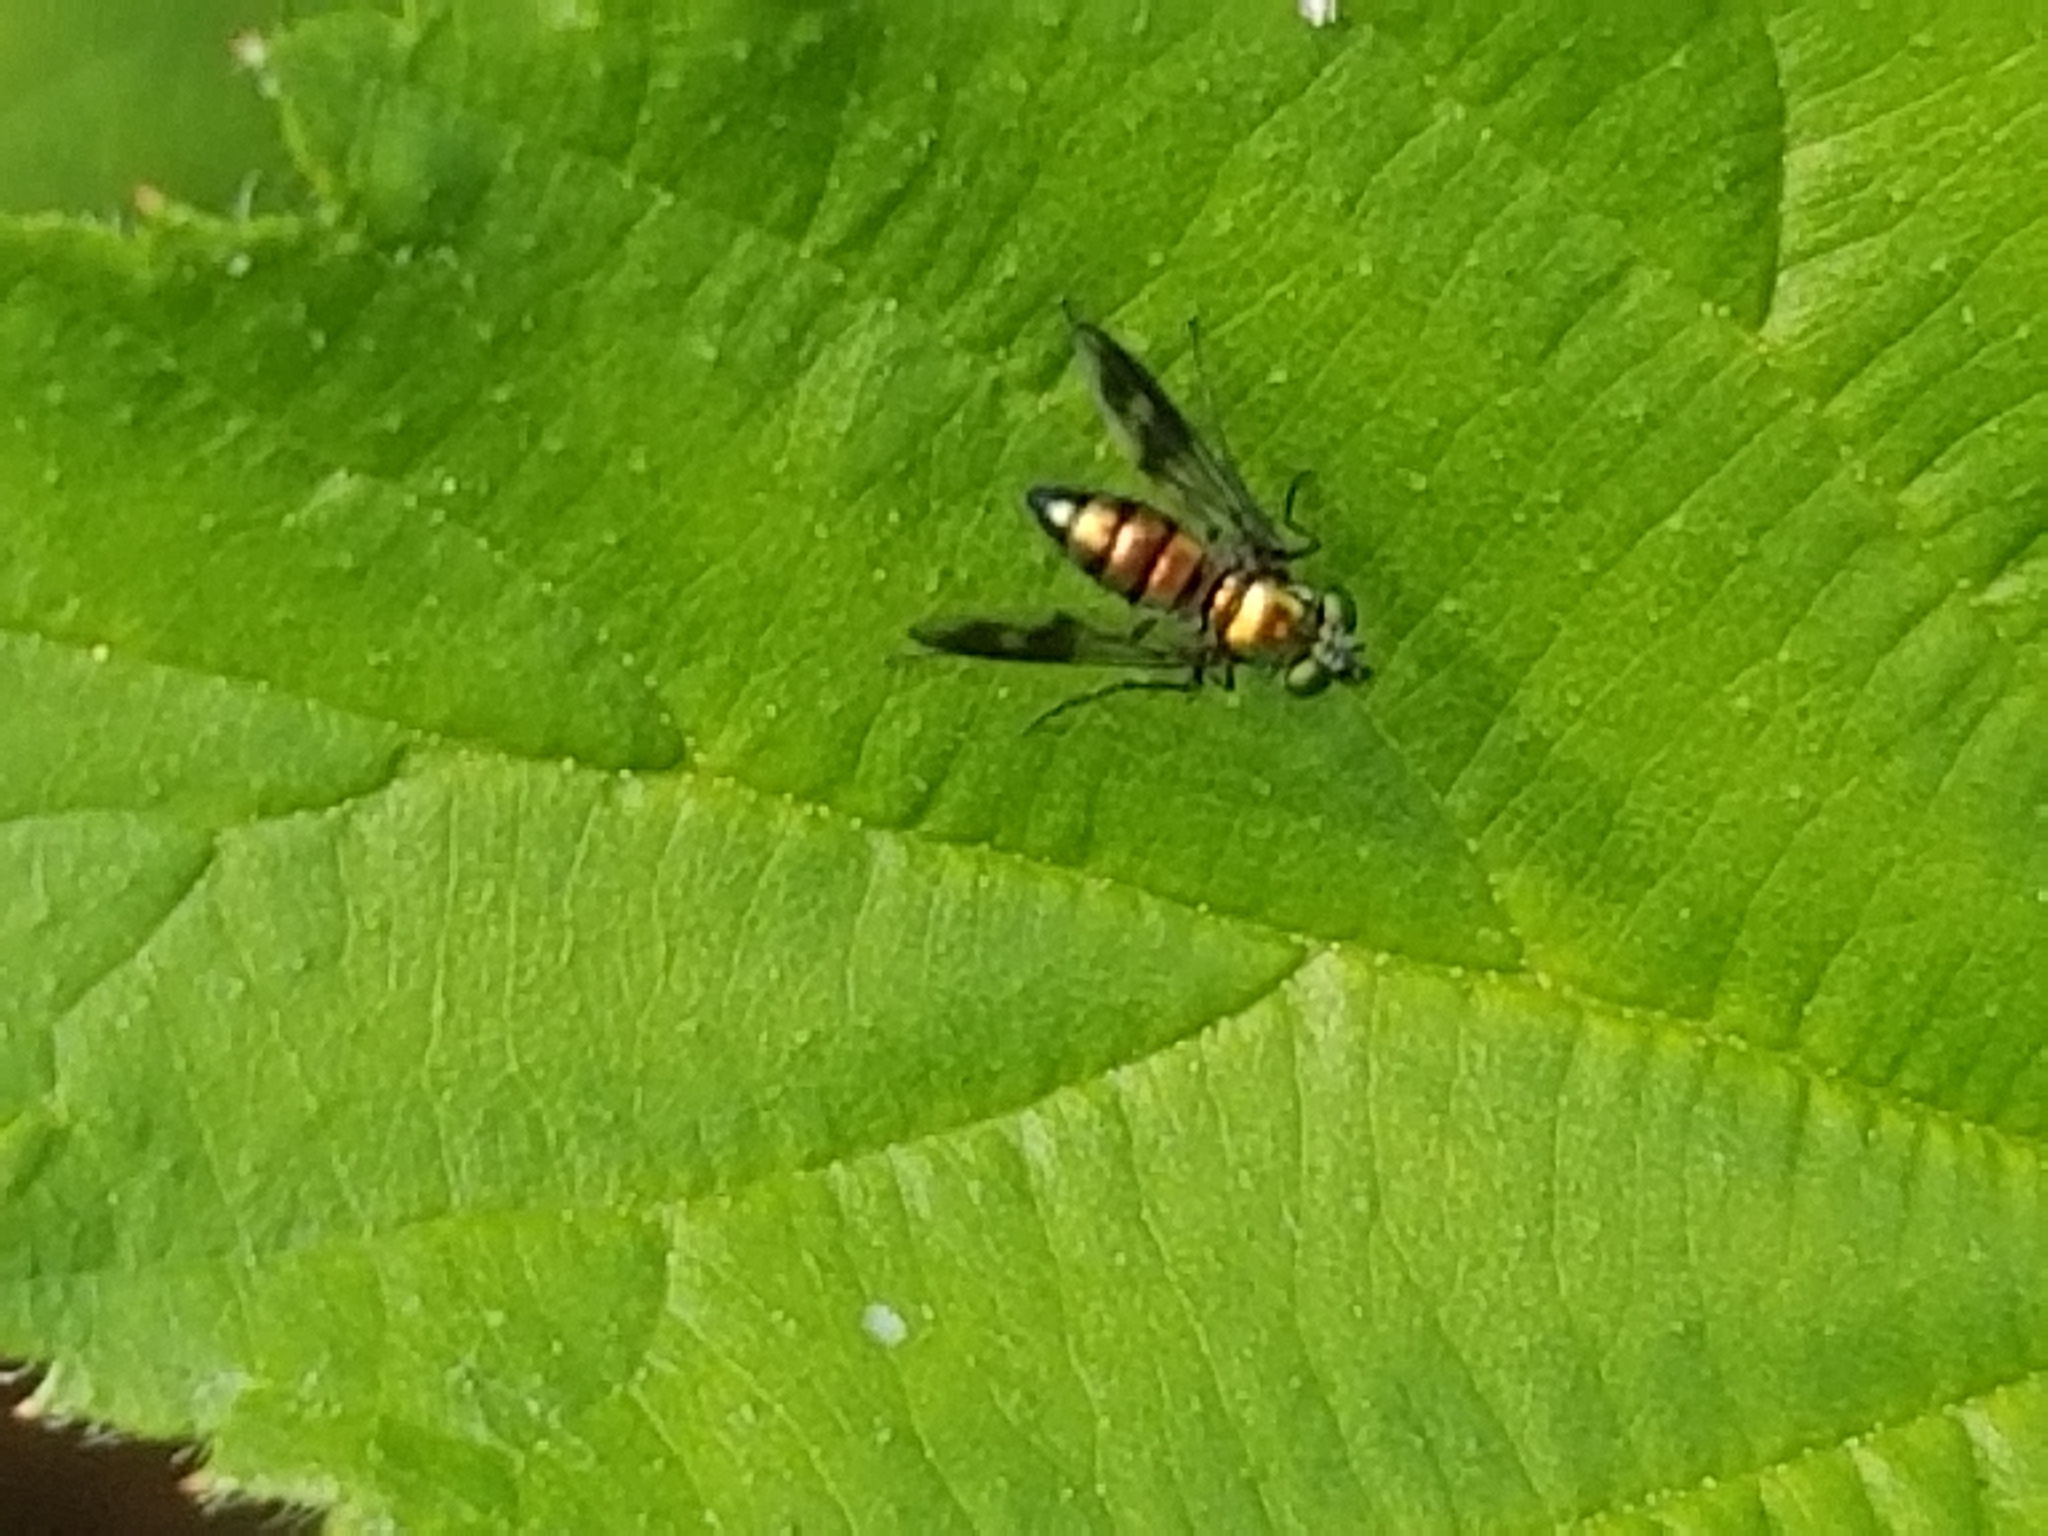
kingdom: Animalia
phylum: Arthropoda
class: Insecta
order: Diptera
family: Dolichopodidae
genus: Condylostylus
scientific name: Condylostylus patibulatus
